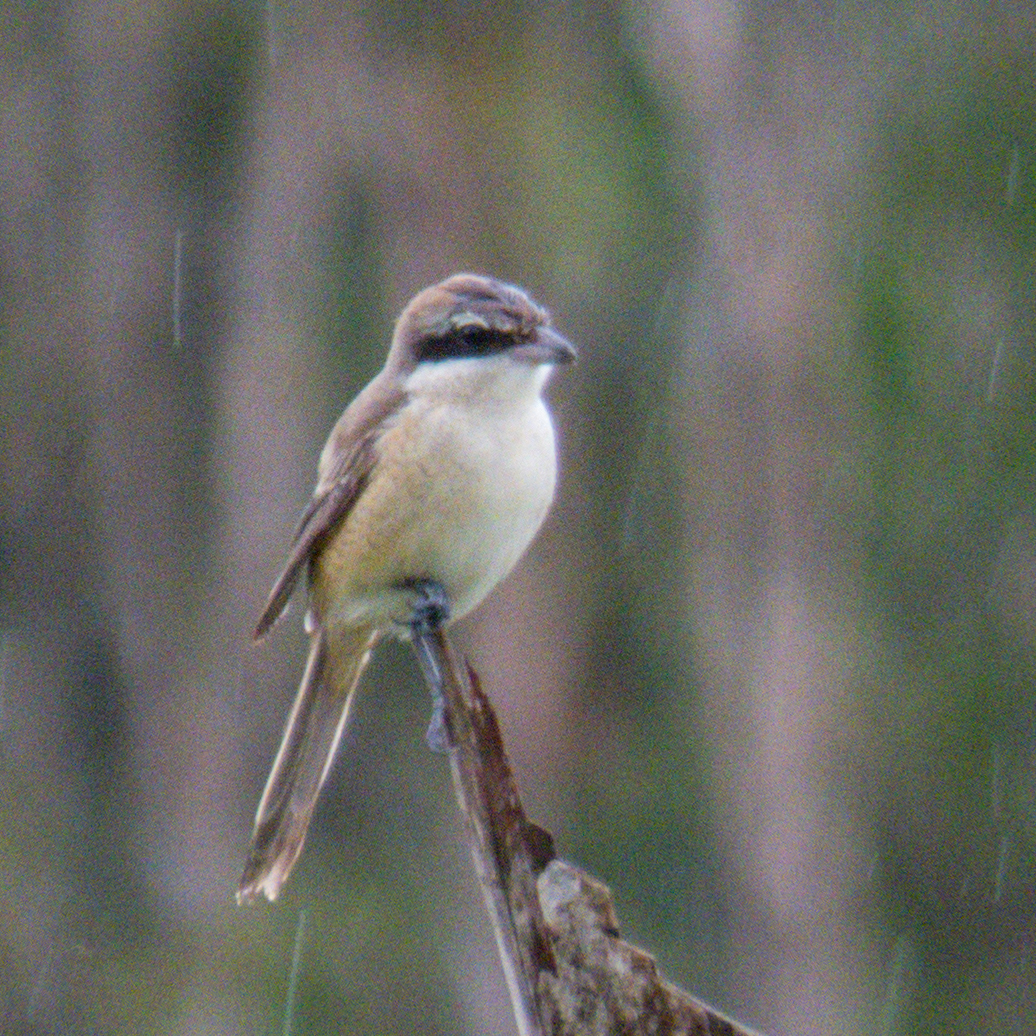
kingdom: Animalia
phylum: Chordata
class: Aves
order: Passeriformes
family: Laniidae
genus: Lanius
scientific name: Lanius cristatus
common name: Brown shrike
